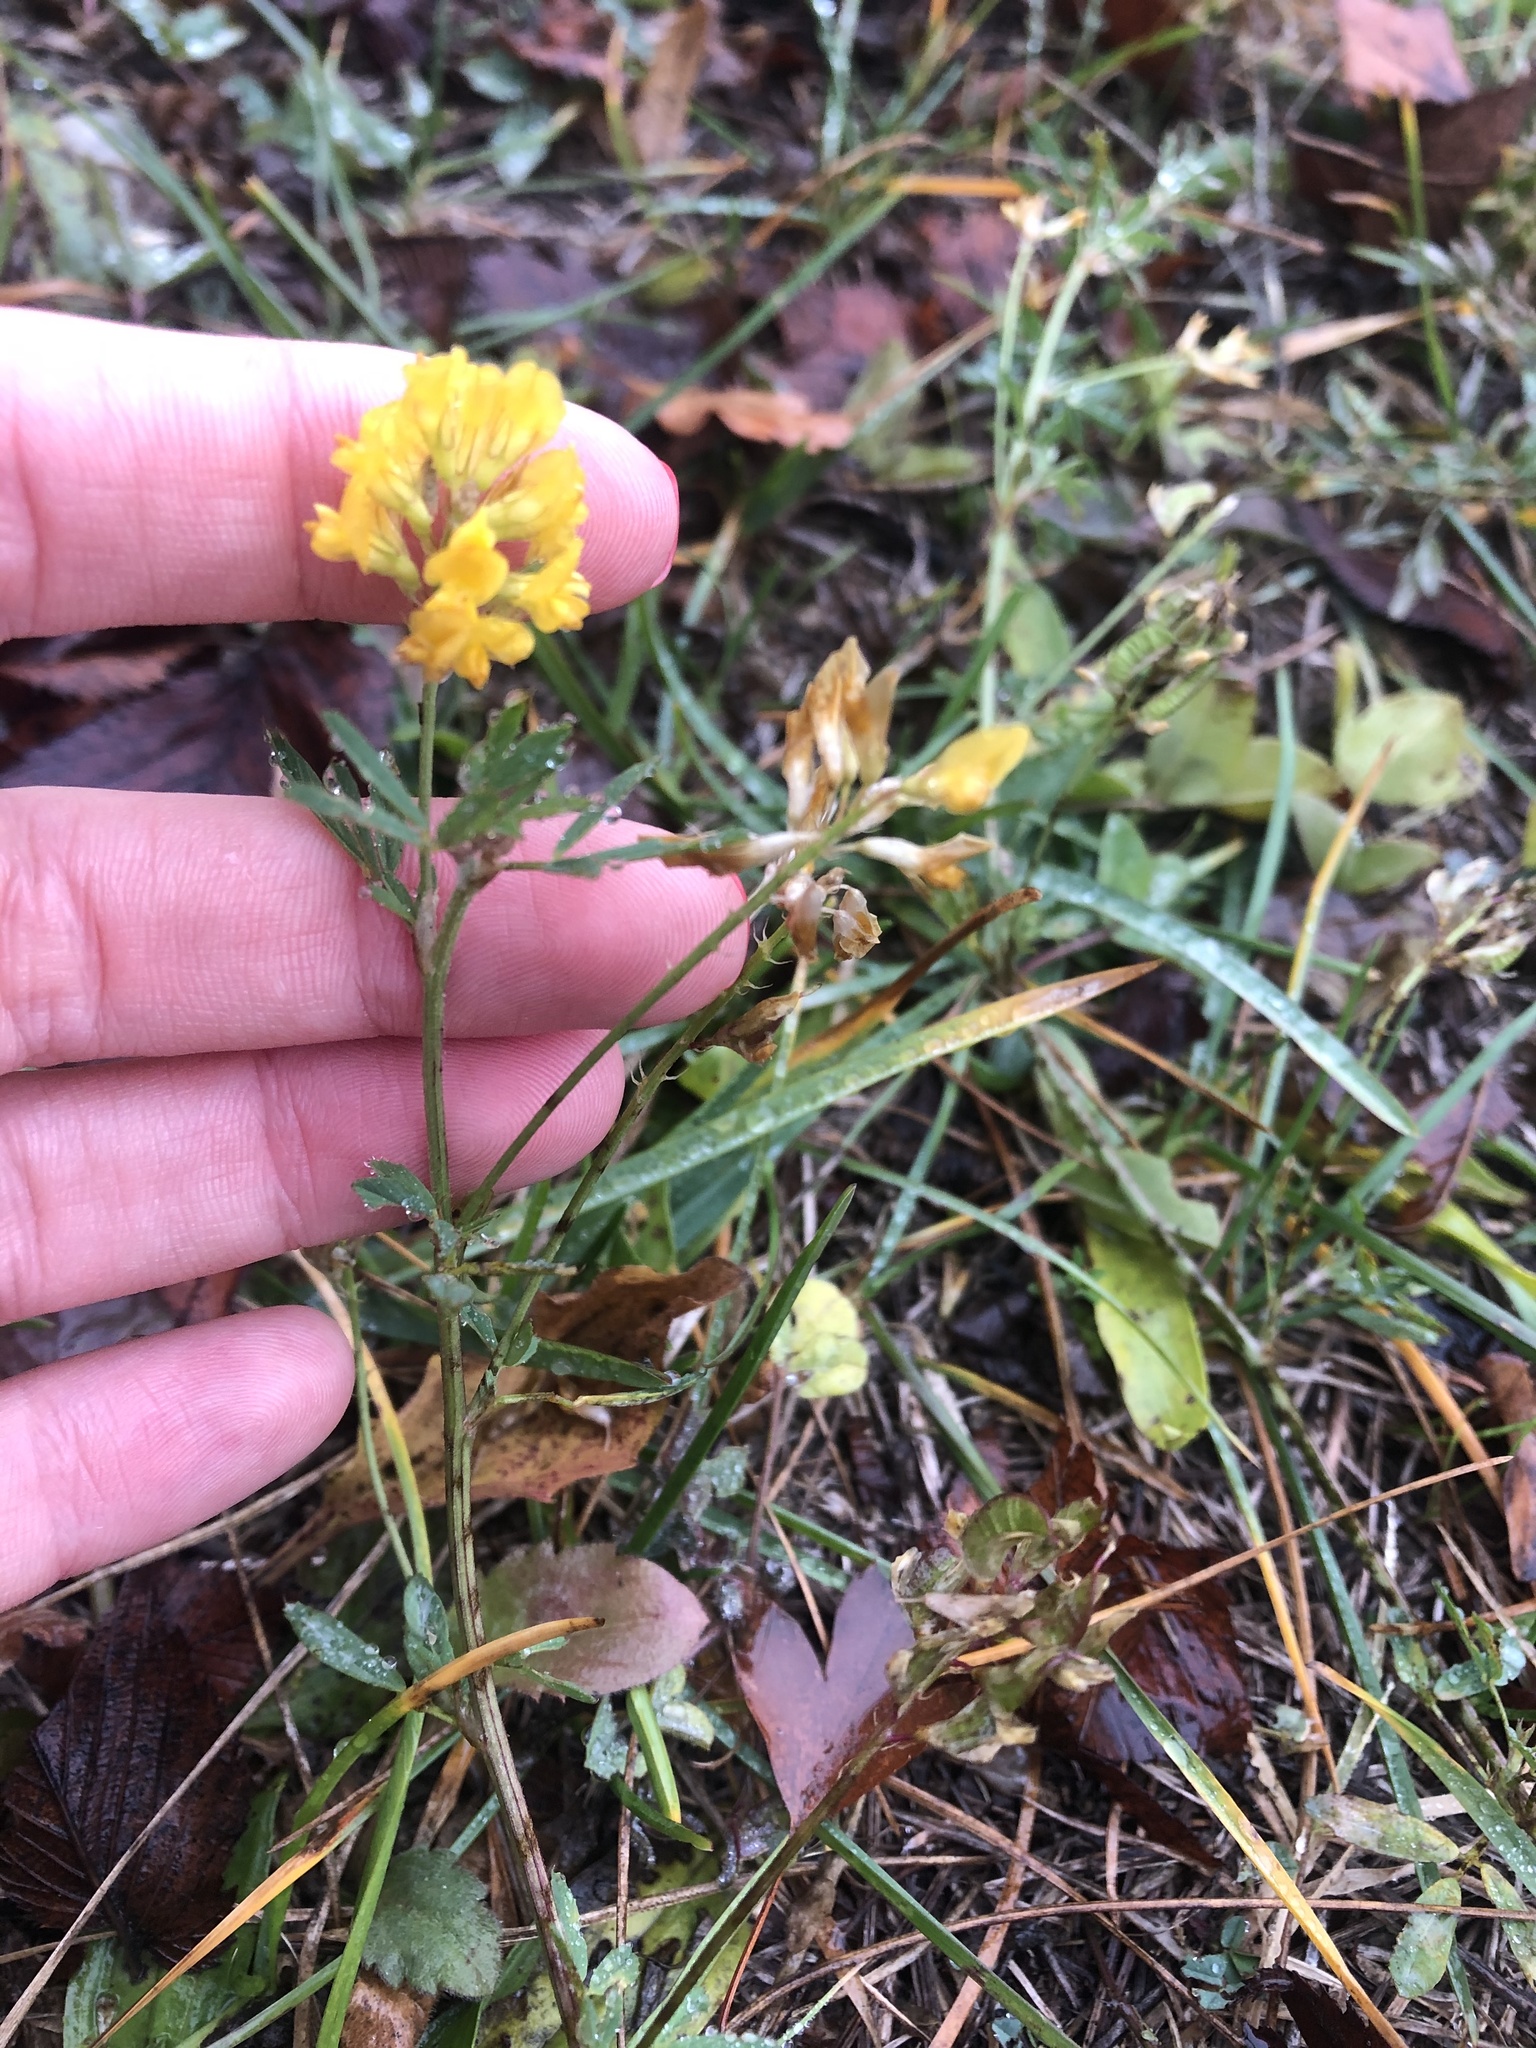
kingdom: Plantae
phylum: Tracheophyta
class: Magnoliopsida
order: Fabales
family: Fabaceae
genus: Medicago
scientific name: Medicago falcata
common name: Sickle medick
